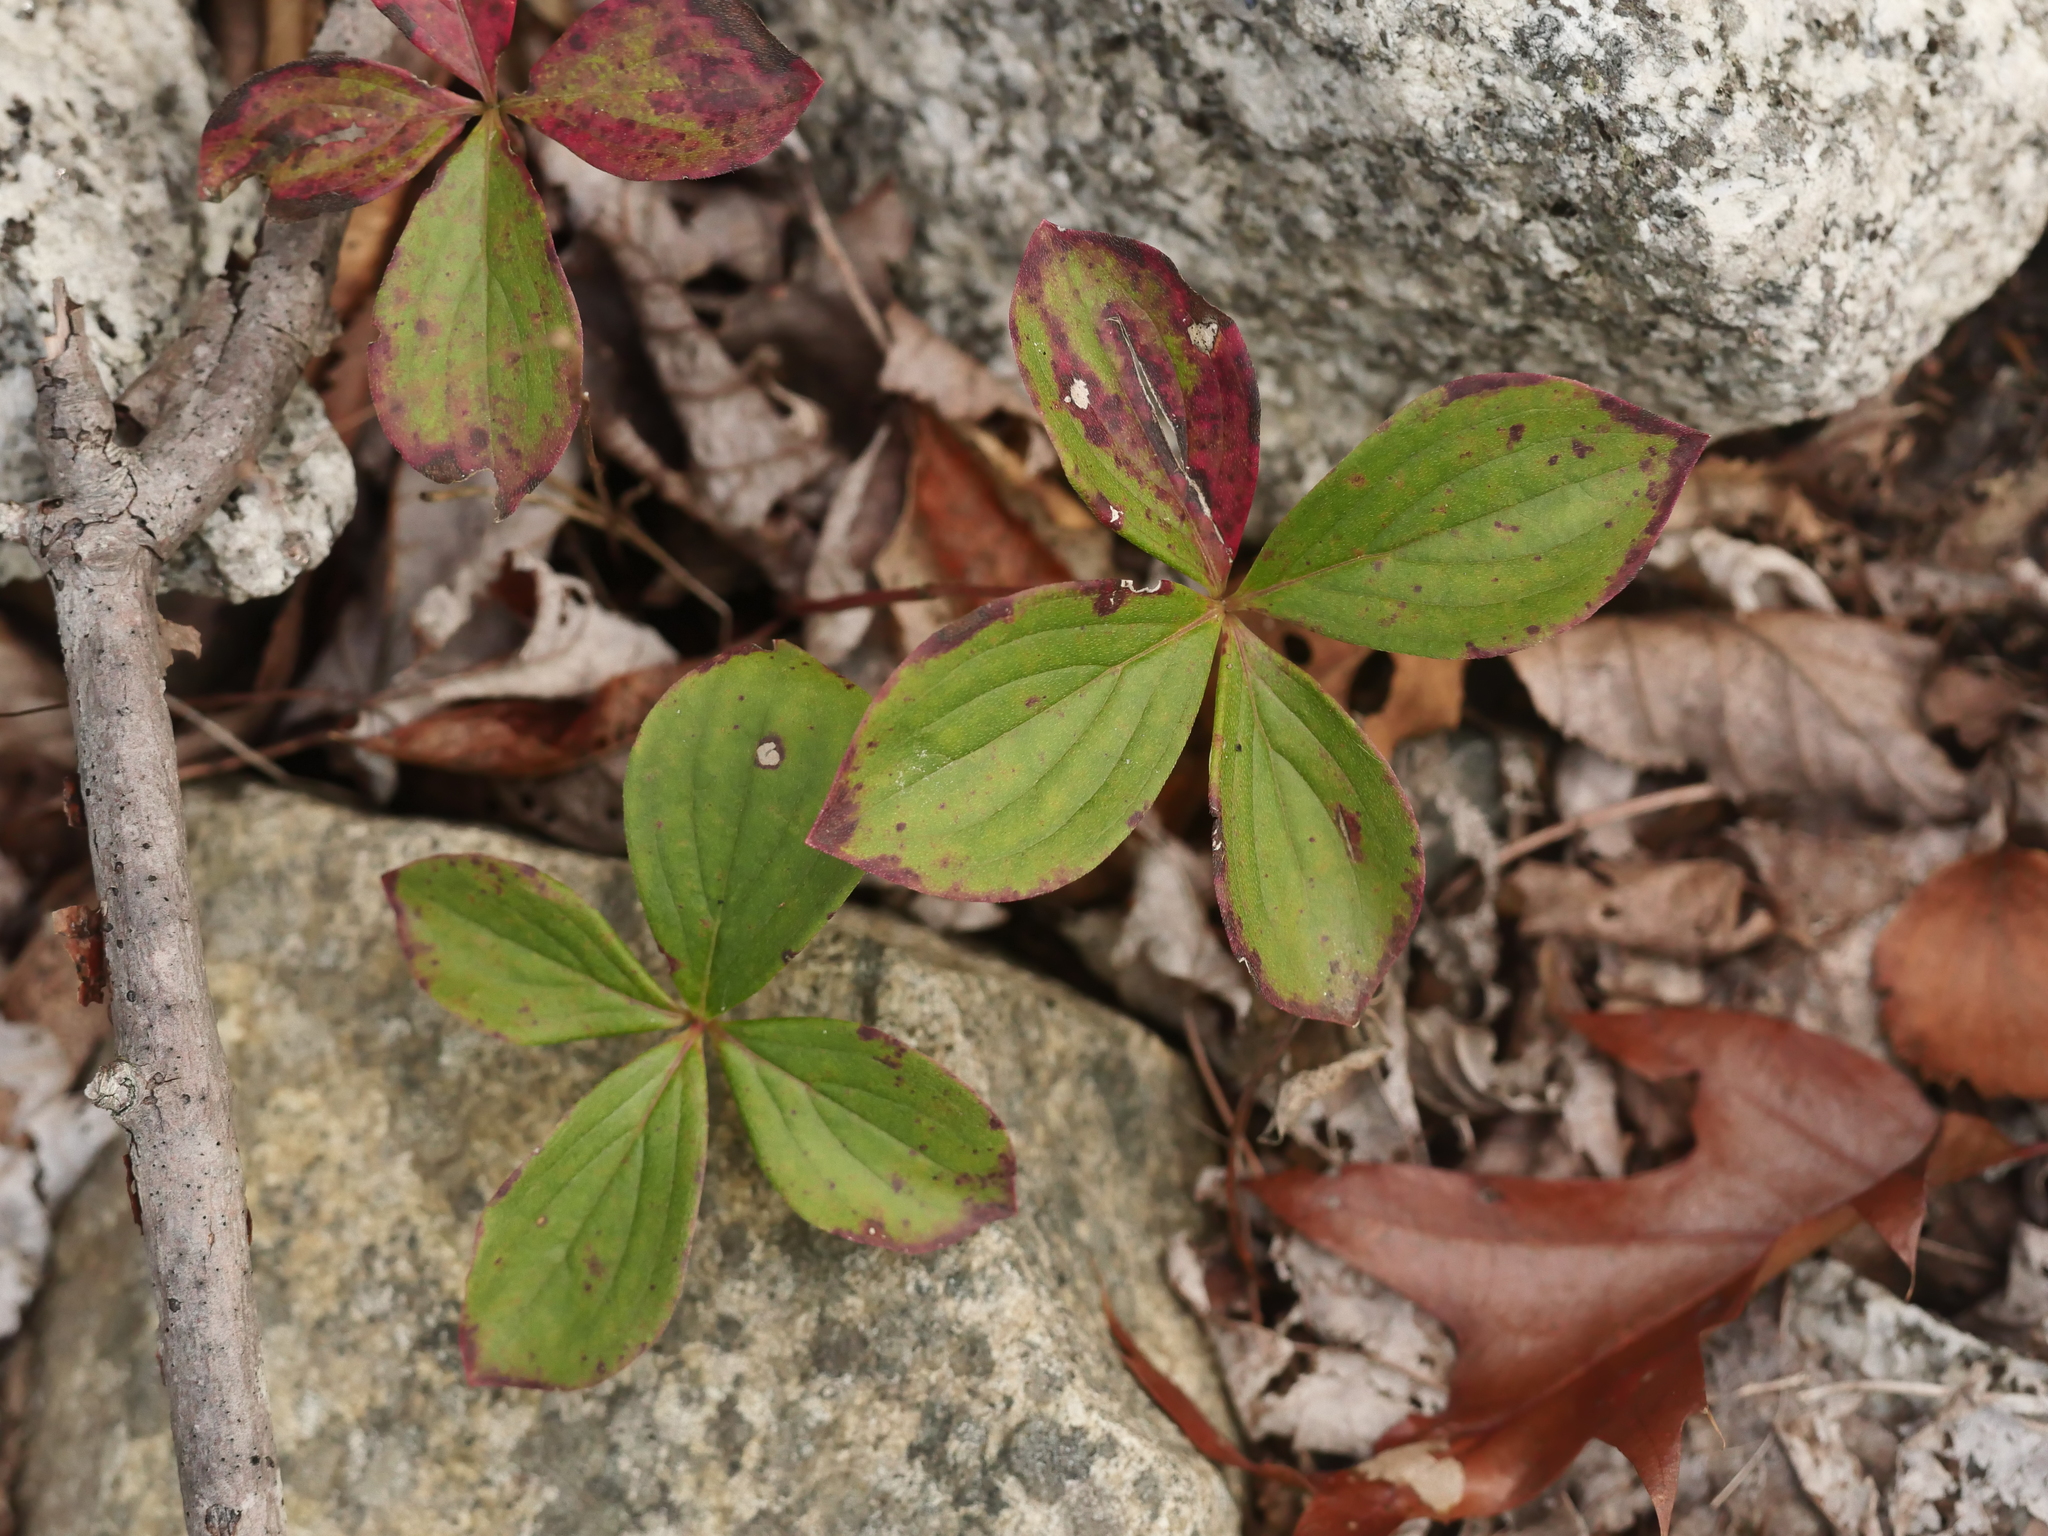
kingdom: Plantae
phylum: Tracheophyta
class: Magnoliopsida
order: Cornales
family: Cornaceae
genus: Cornus
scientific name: Cornus canadensis
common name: Creeping dogwood
